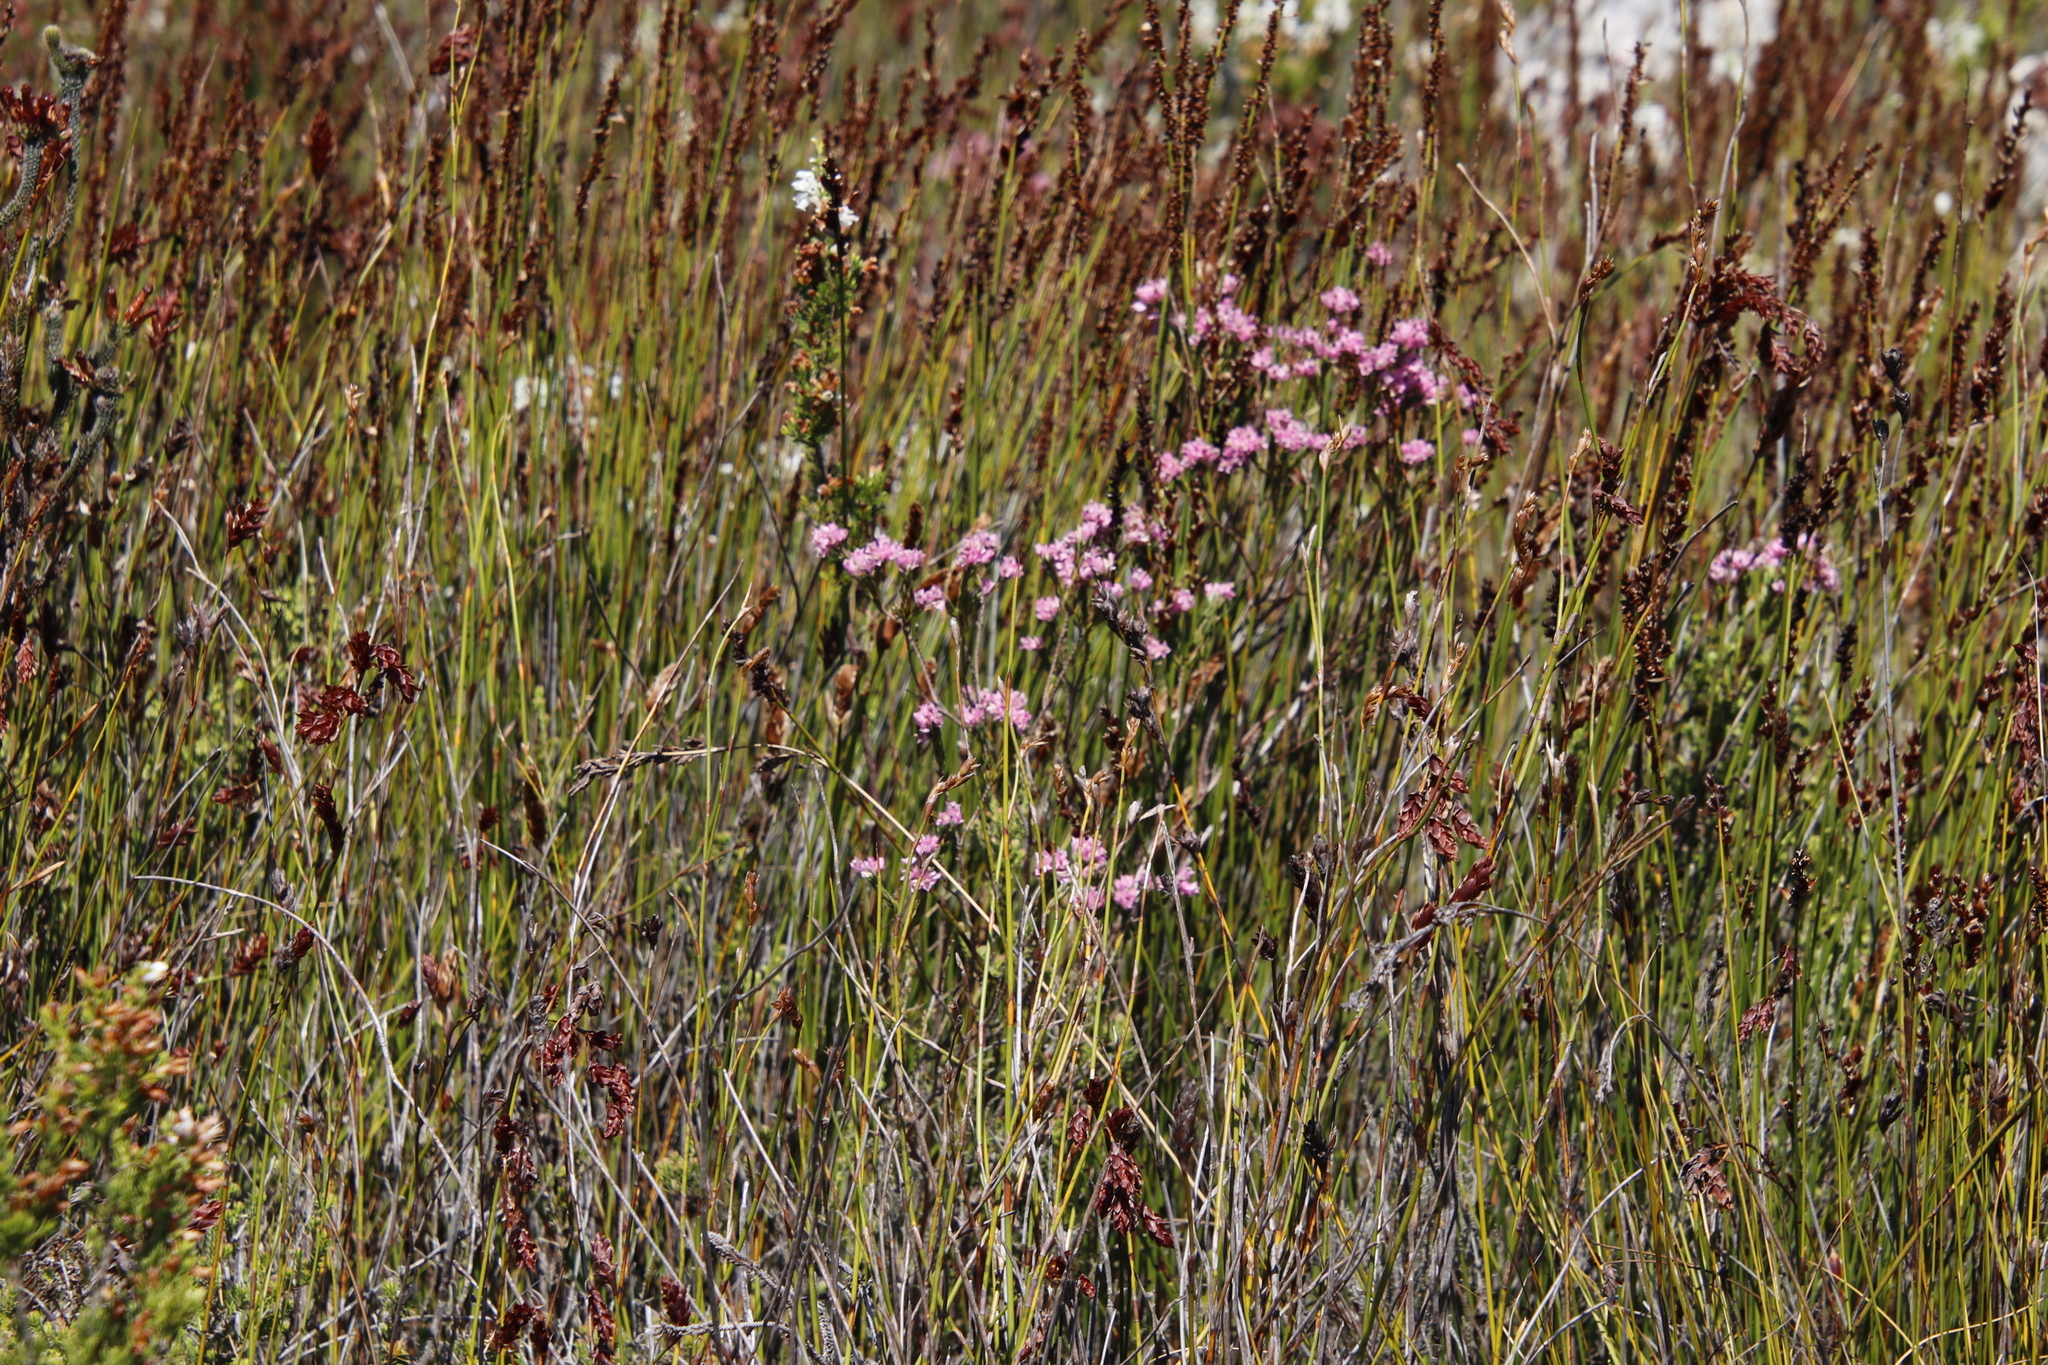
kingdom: Plantae
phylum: Tracheophyta
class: Magnoliopsida
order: Ericales
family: Ericaceae
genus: Erica
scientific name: Erica corifolia
